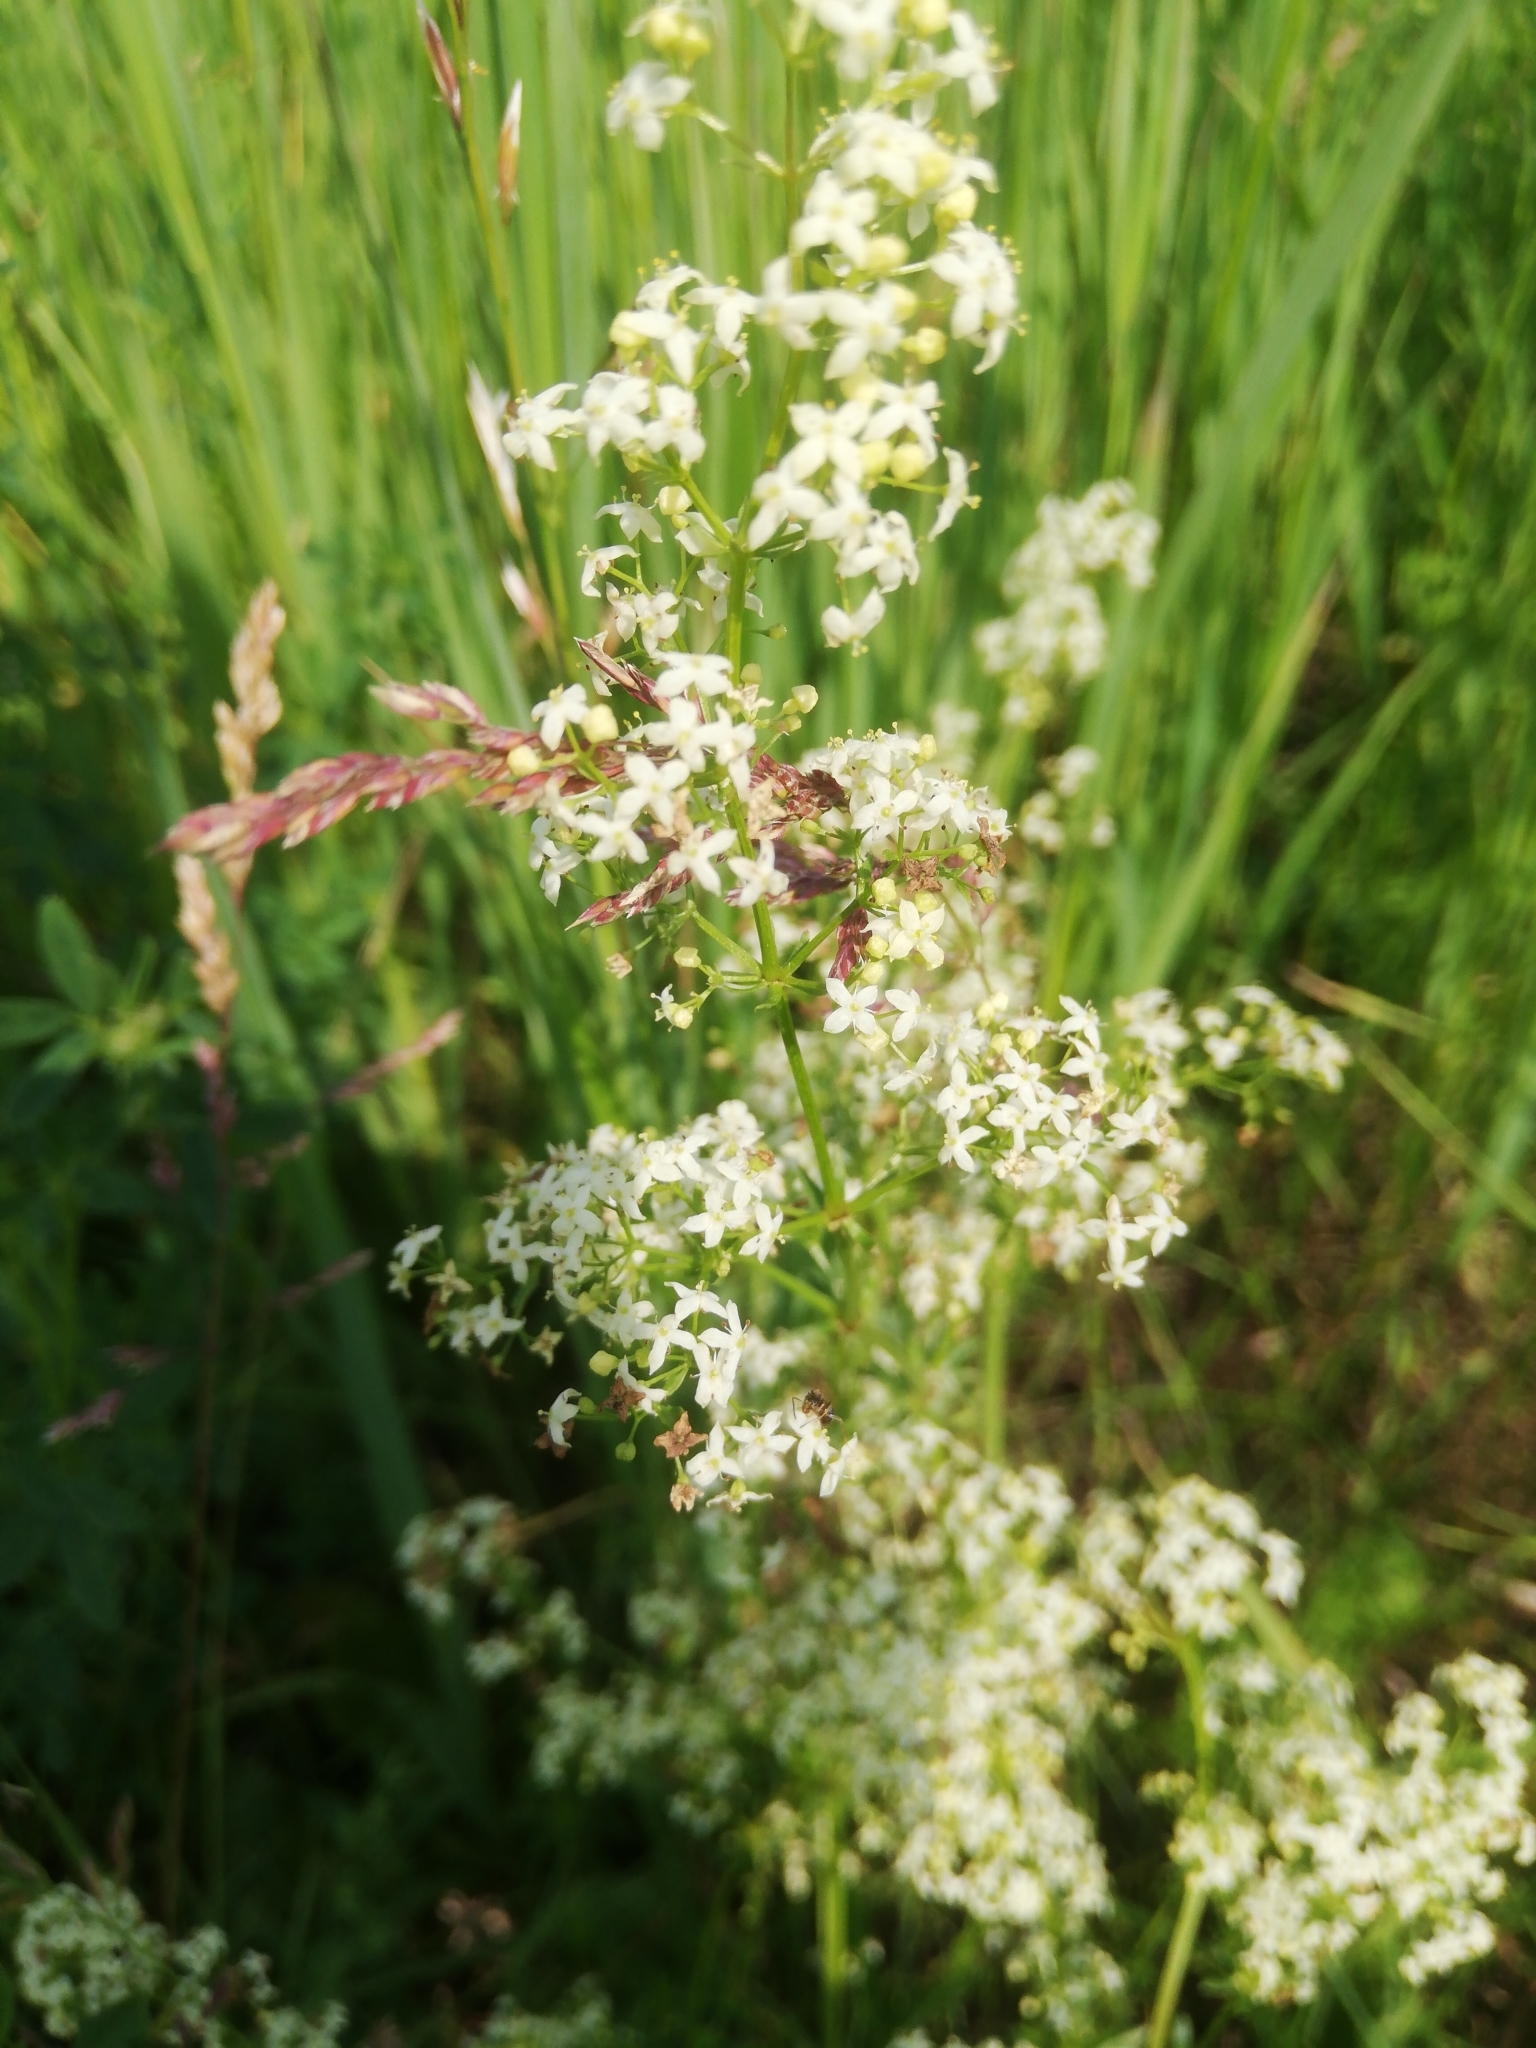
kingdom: Plantae
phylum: Tracheophyta
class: Magnoliopsida
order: Gentianales
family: Rubiaceae
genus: Galium
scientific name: Galium mollugo
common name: Hedge bedstraw
